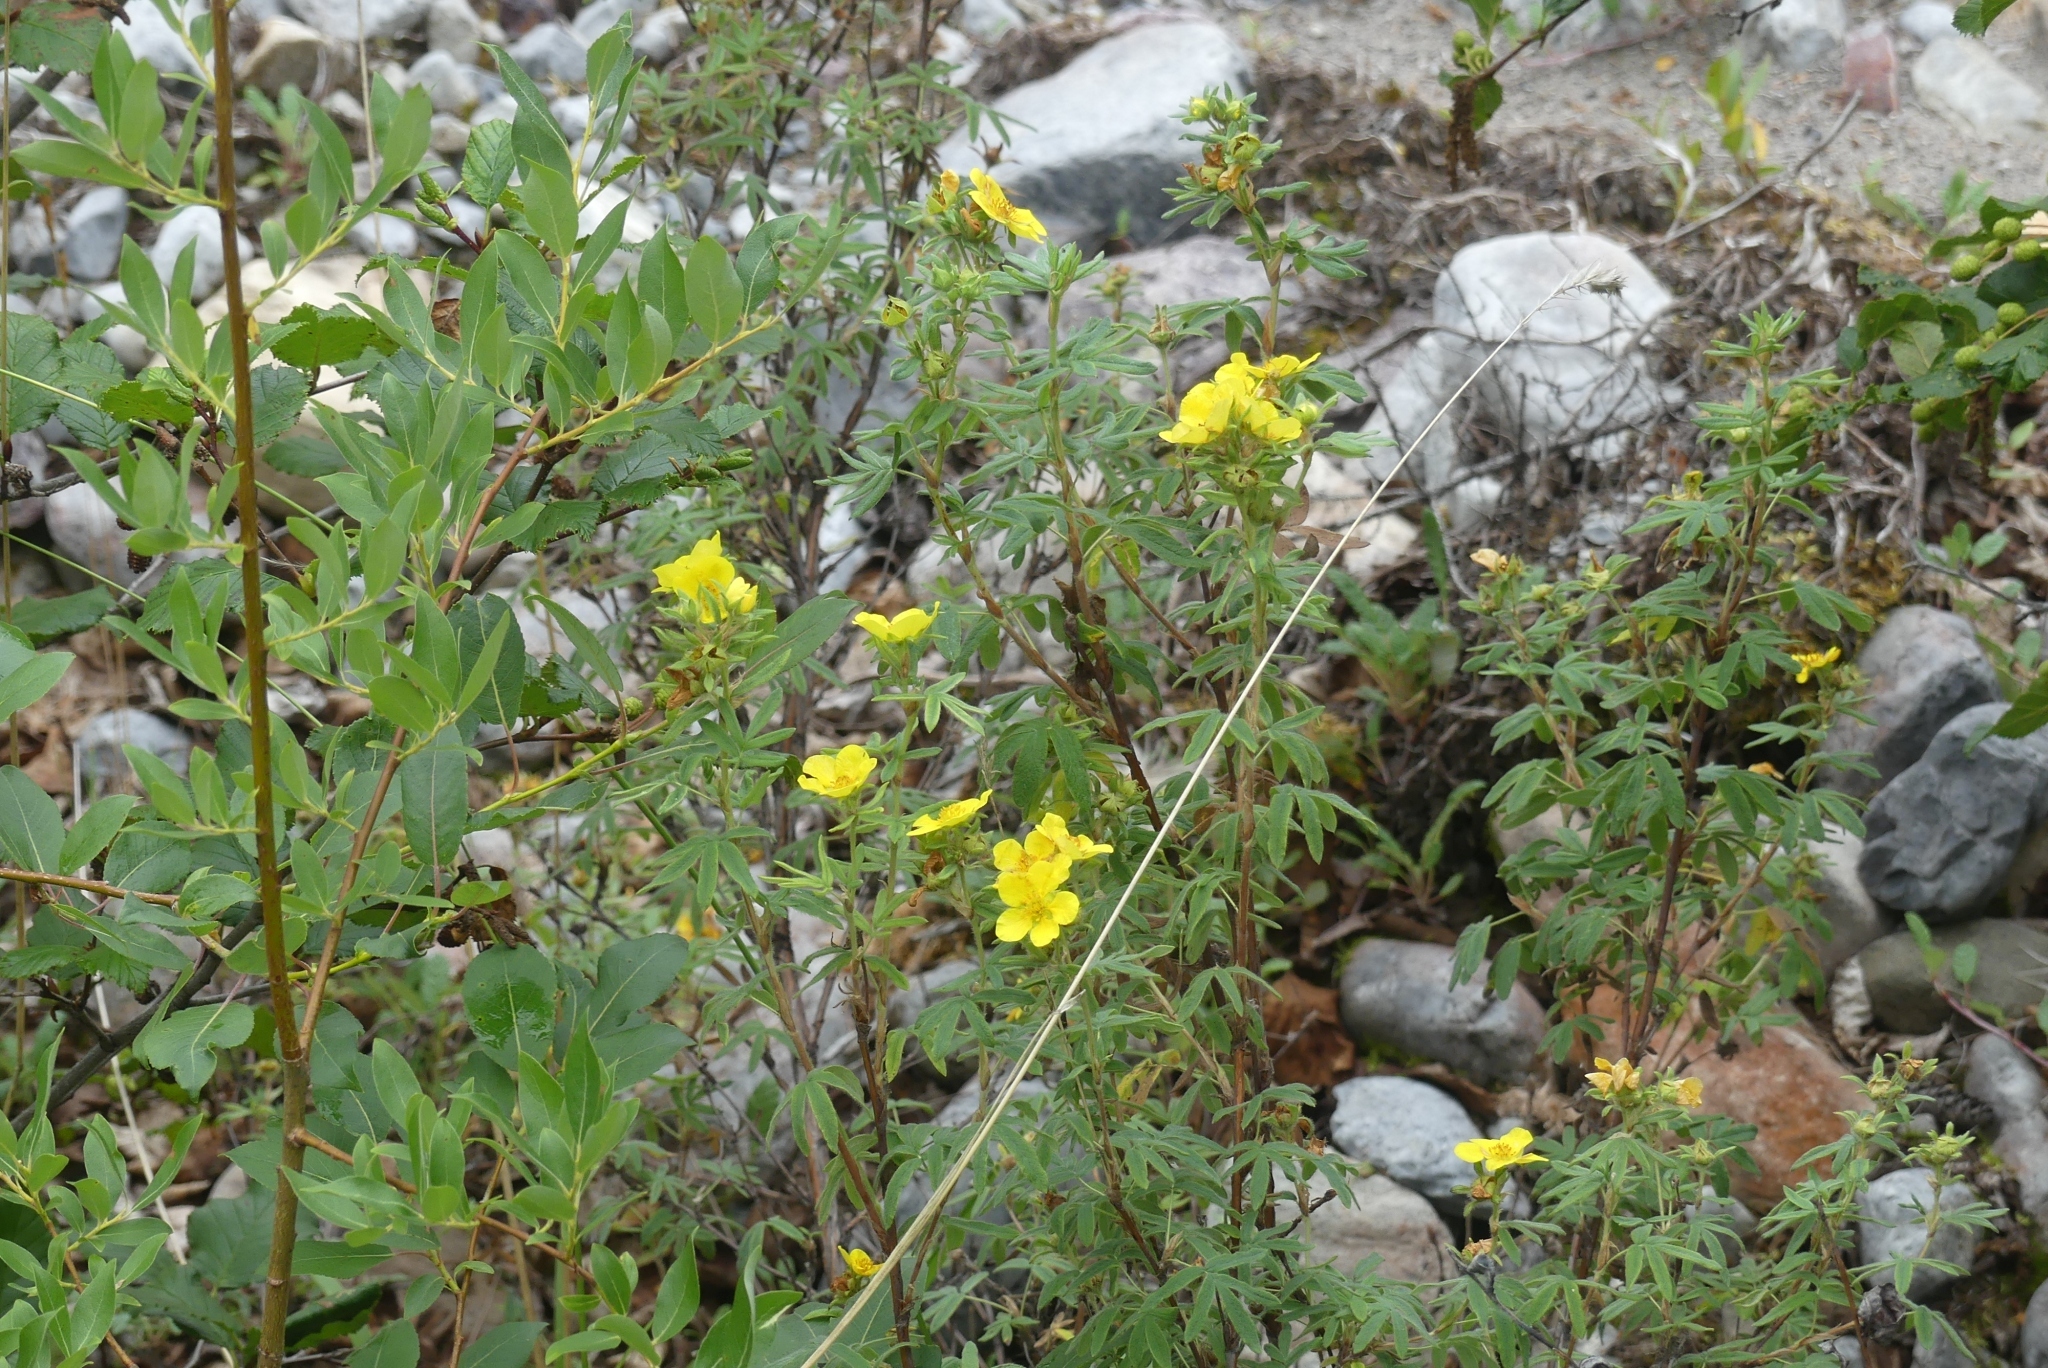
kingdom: Plantae
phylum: Tracheophyta
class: Magnoliopsida
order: Rosales
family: Rosaceae
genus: Dasiphora
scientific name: Dasiphora fruticosa
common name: Shrubby cinquefoil
